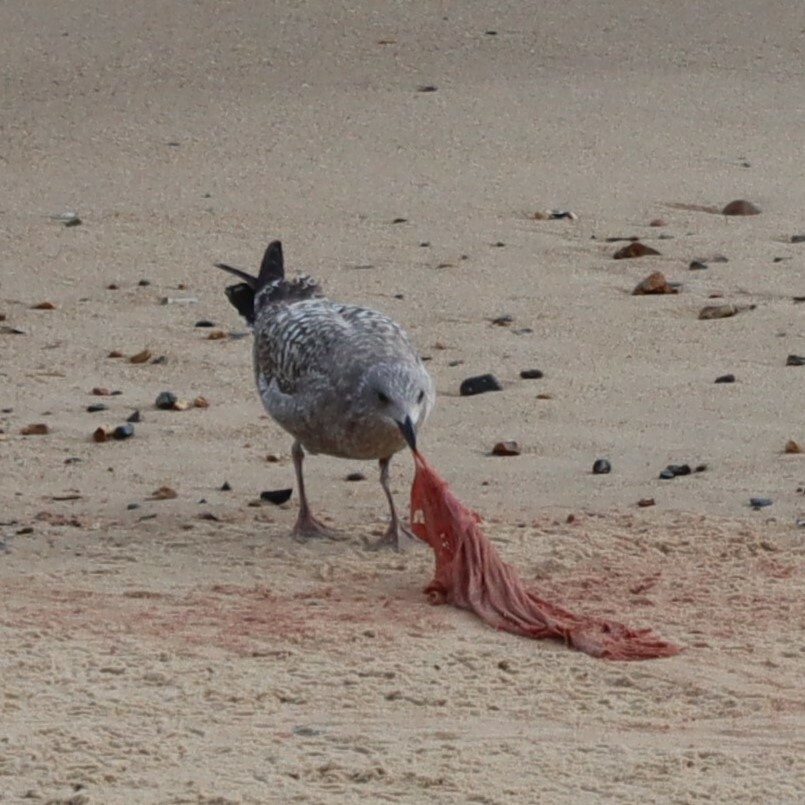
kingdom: Animalia
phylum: Chordata
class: Aves
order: Charadriiformes
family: Laridae
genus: Larus
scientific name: Larus argentatus
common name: Herring gull
